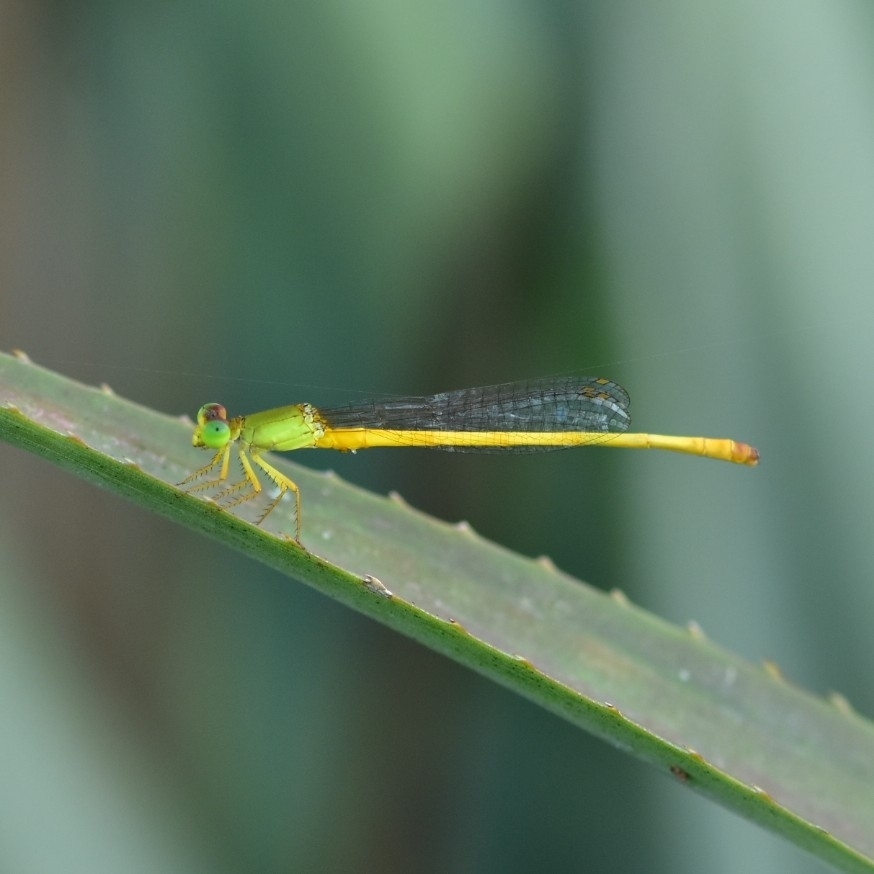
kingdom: Animalia
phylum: Arthropoda
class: Insecta
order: Odonata
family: Coenagrionidae
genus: Ceriagrion
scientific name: Ceriagrion coromandelianum
